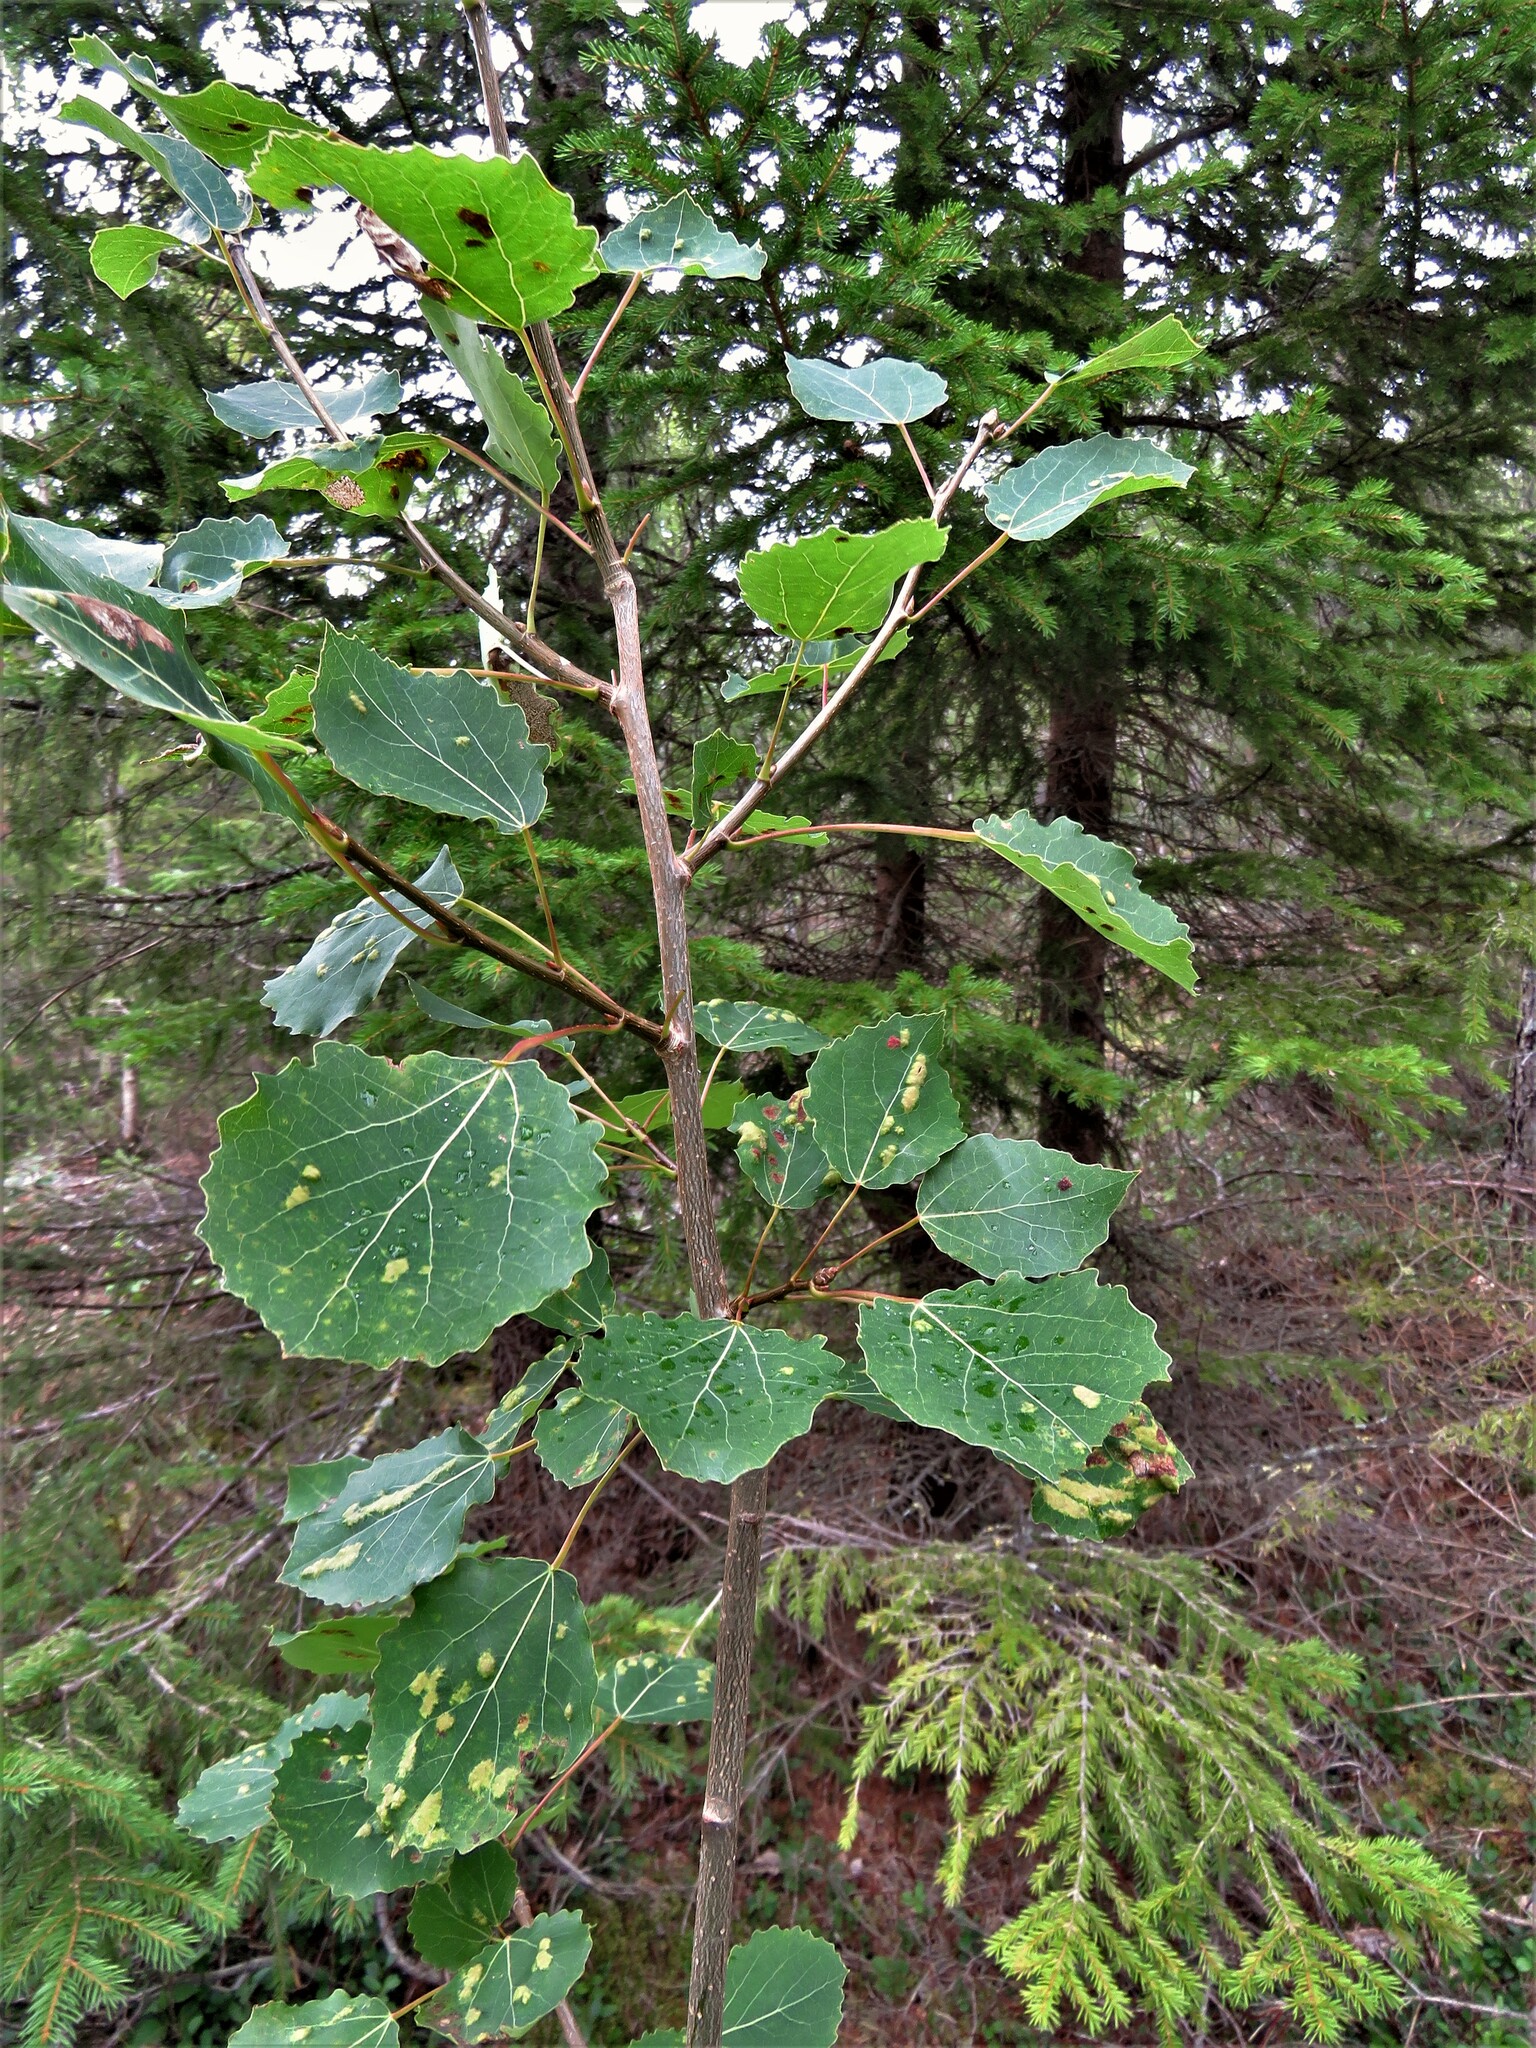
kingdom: Plantae
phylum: Tracheophyta
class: Magnoliopsida
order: Malpighiales
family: Salicaceae
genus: Populus
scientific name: Populus tremula
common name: European aspen
